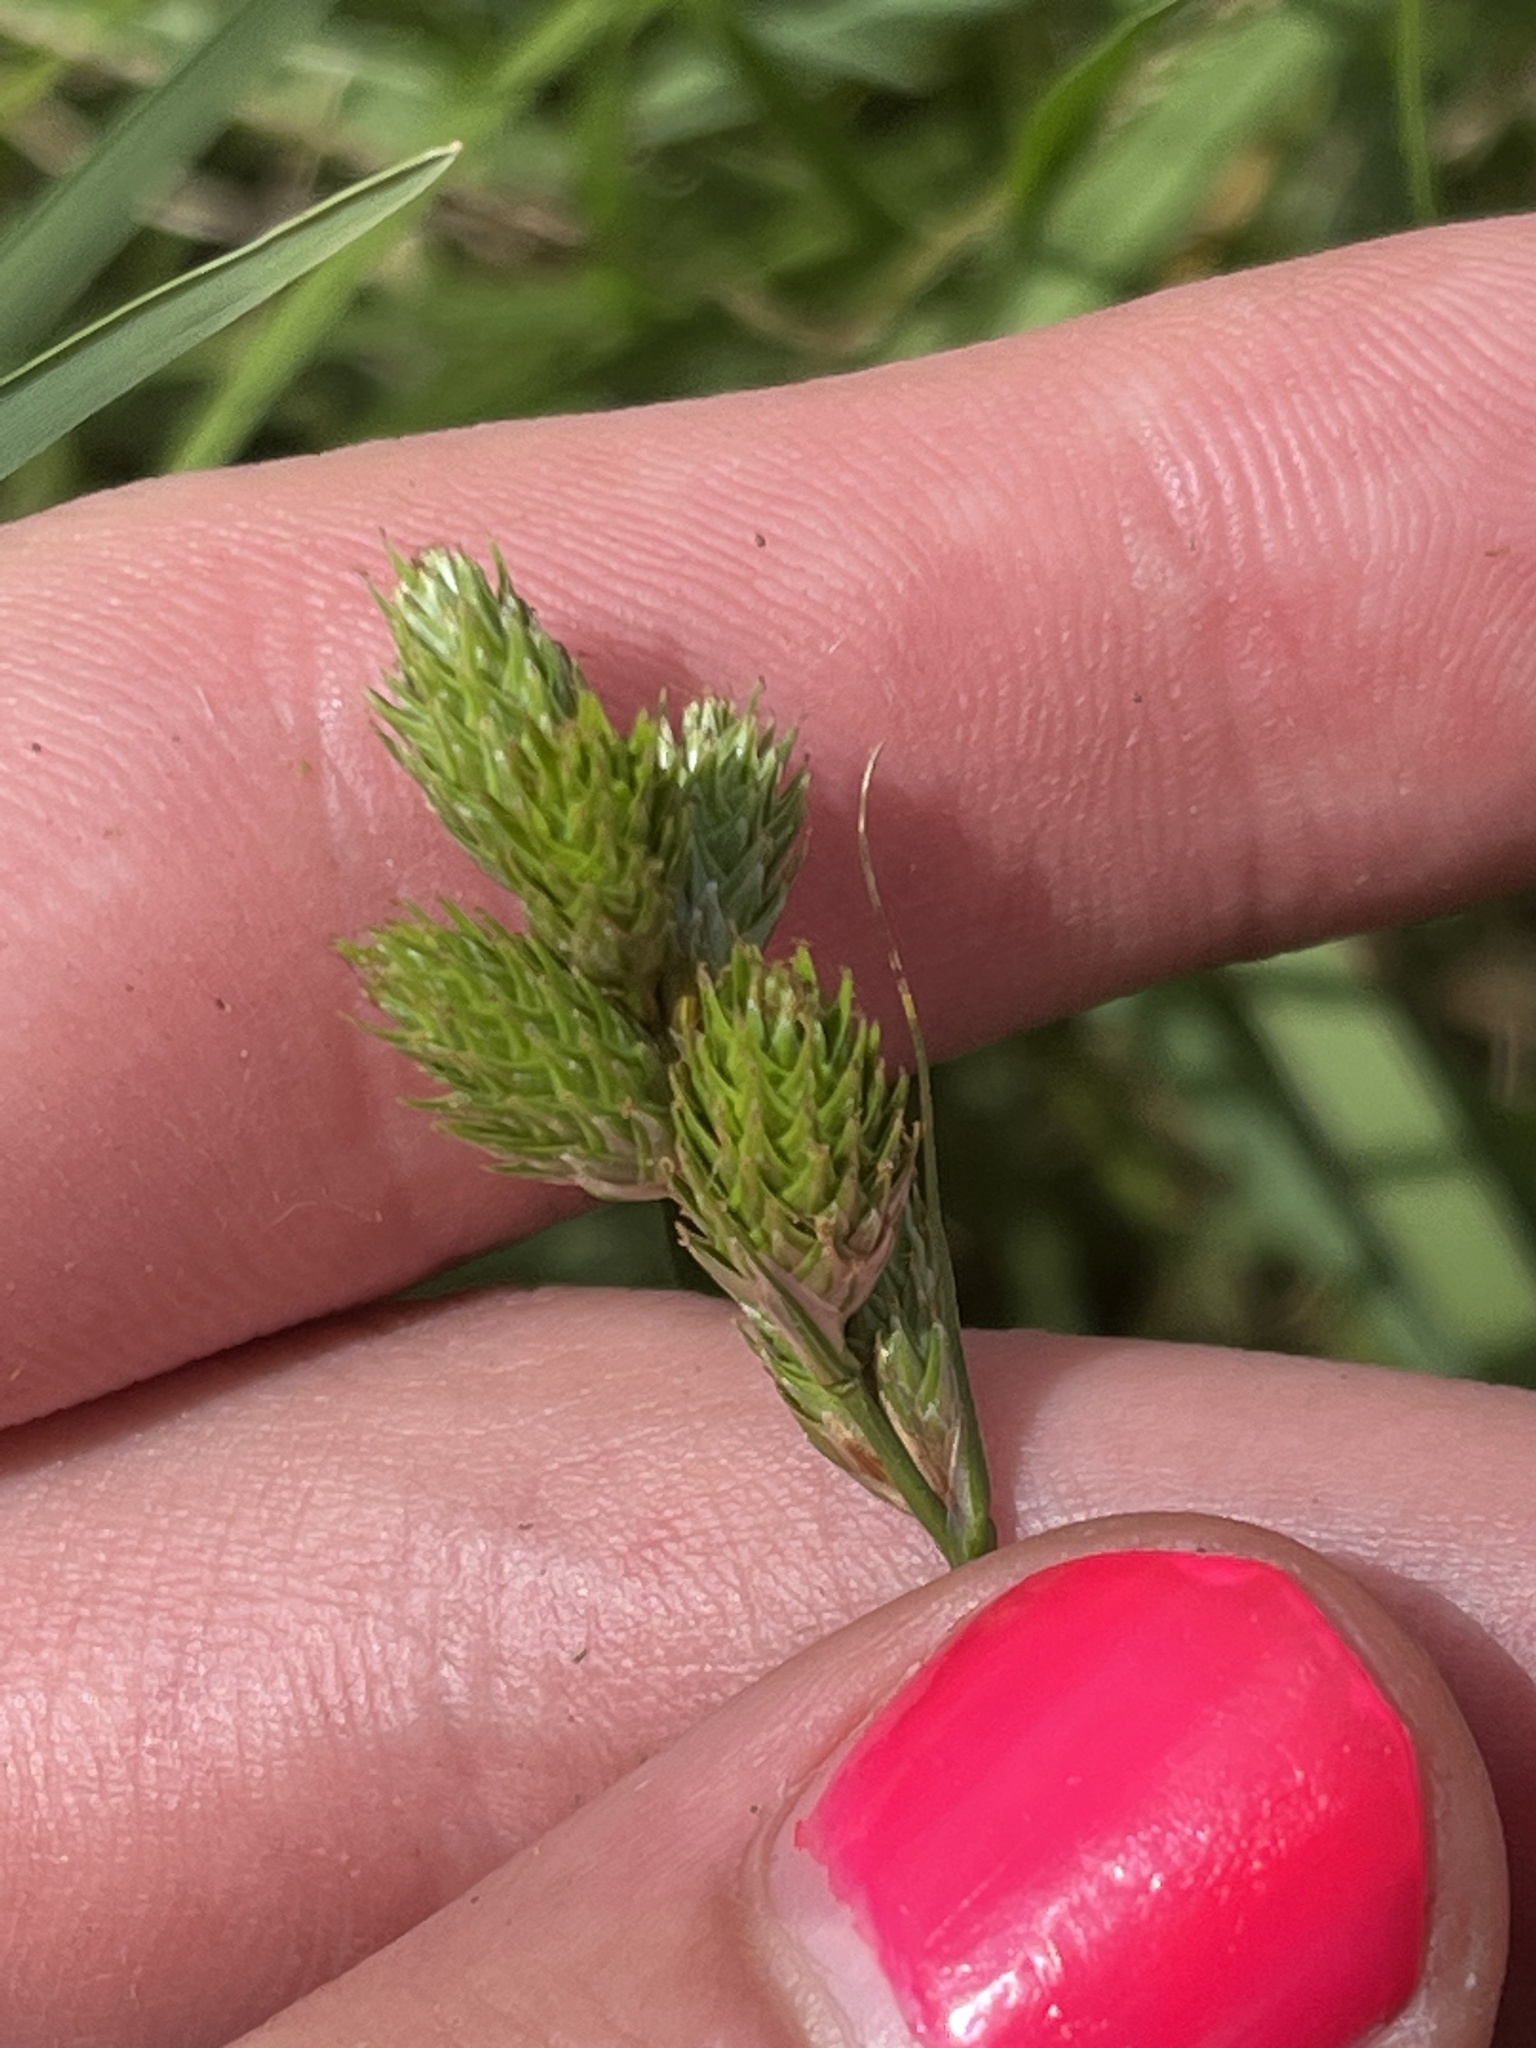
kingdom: Plantae
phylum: Tracheophyta
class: Liliopsida
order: Poales
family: Cyperaceae
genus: Carex
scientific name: Carex longii
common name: Long's sedge
